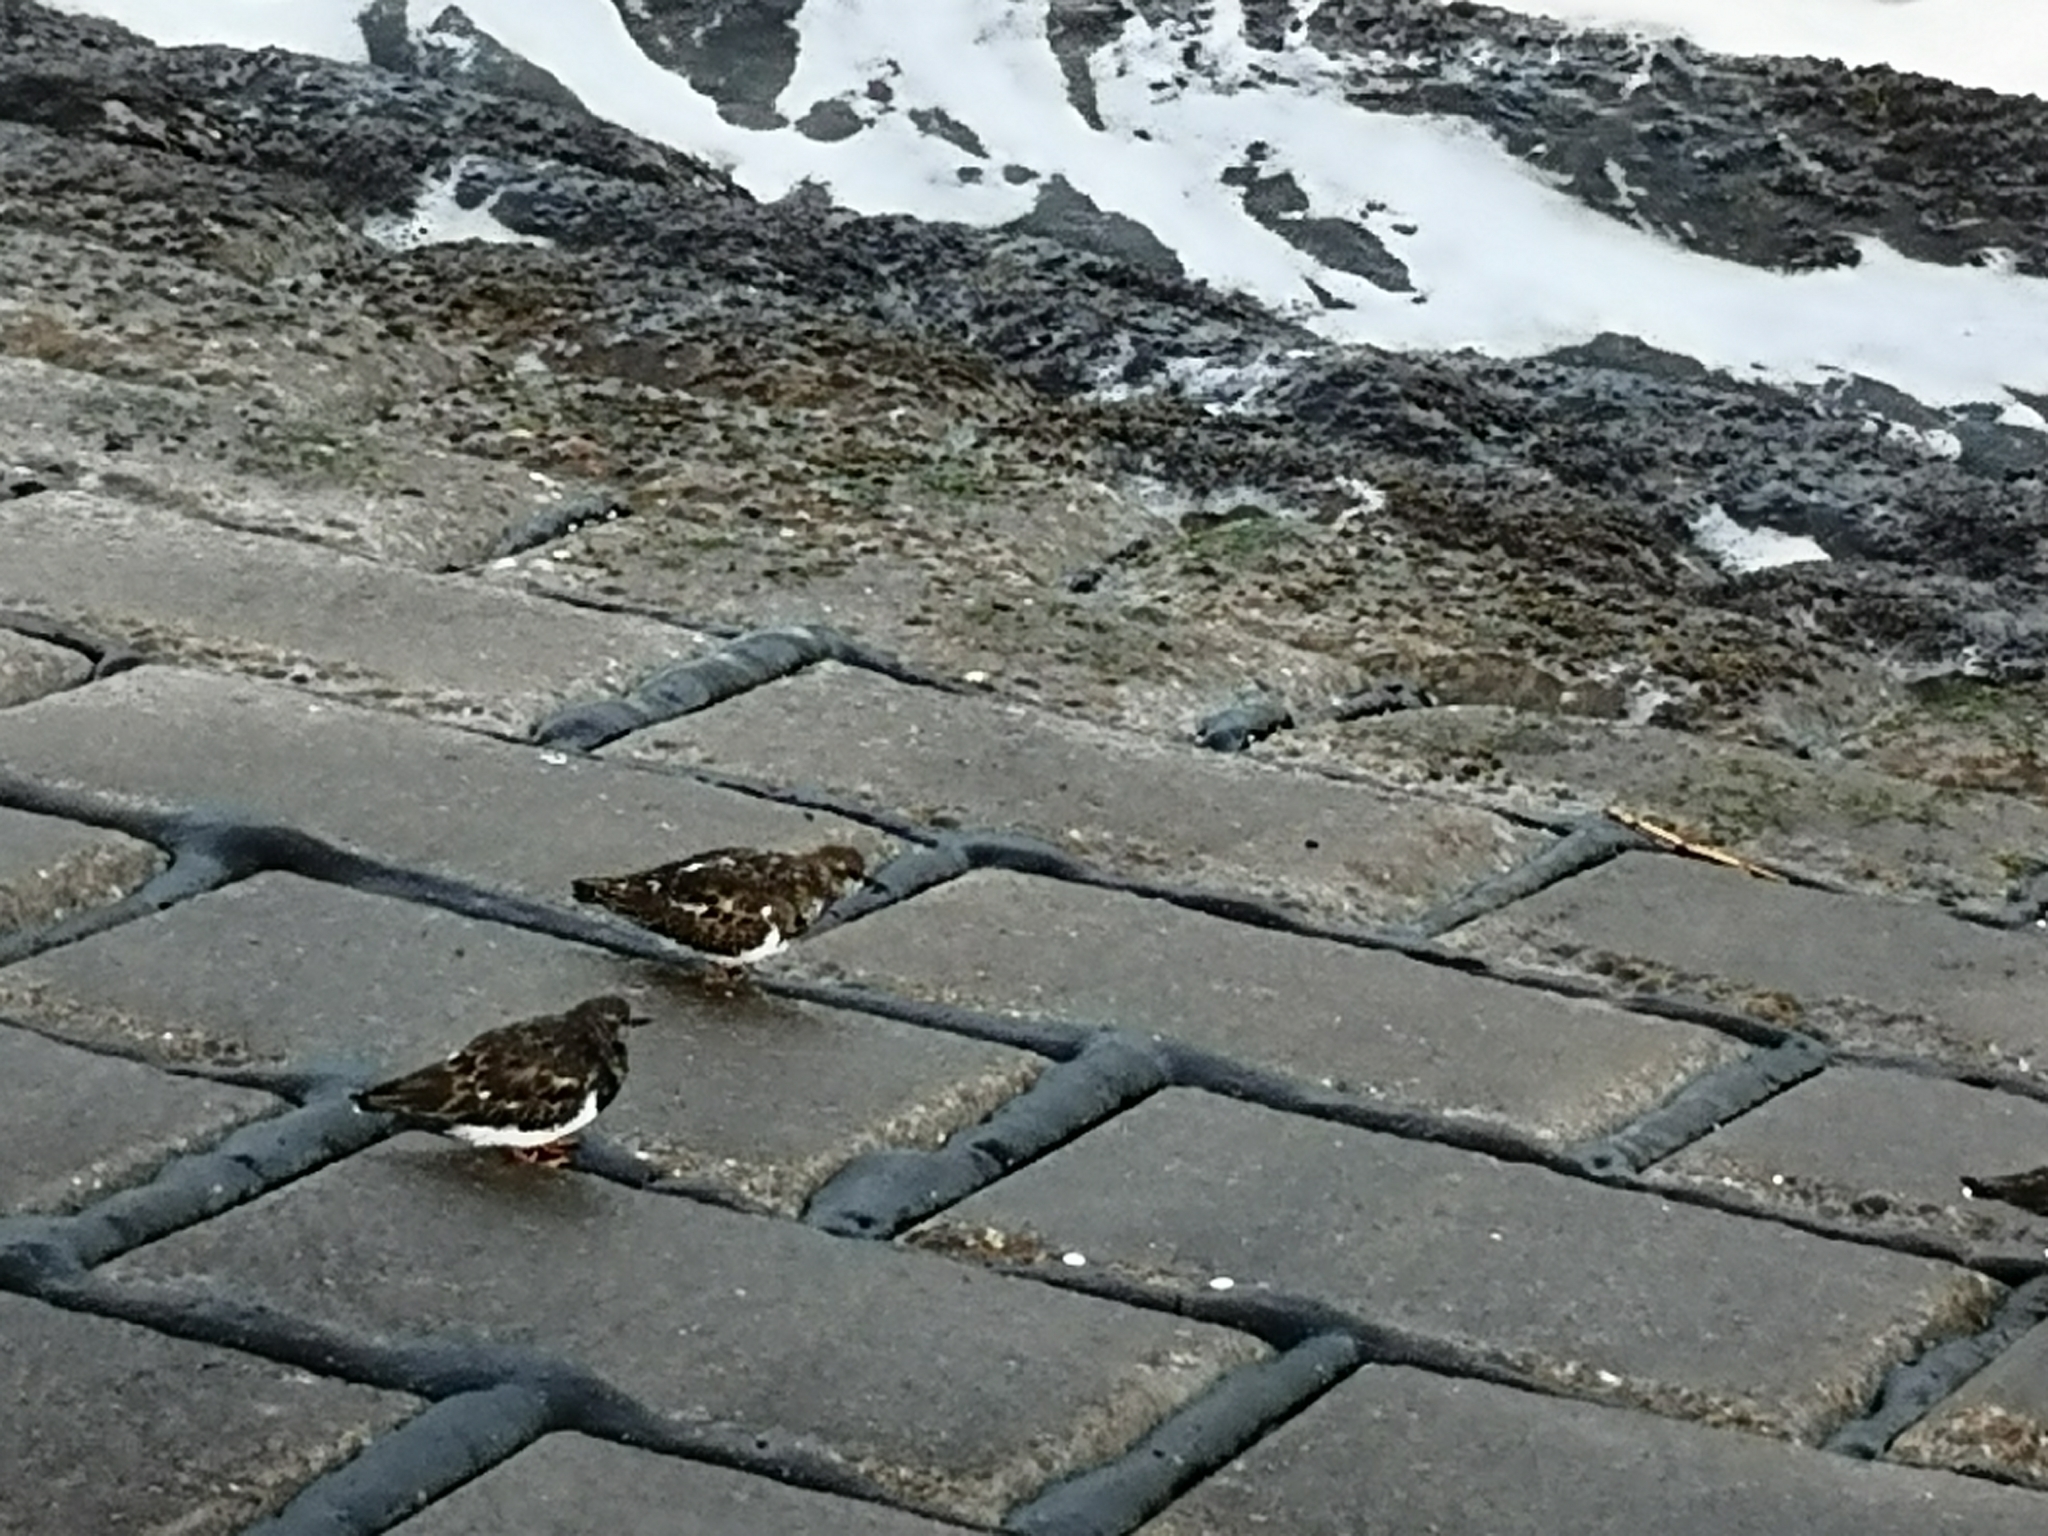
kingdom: Animalia
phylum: Chordata
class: Aves
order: Charadriiformes
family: Scolopacidae
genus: Arenaria
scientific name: Arenaria interpres
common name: Ruddy turnstone
